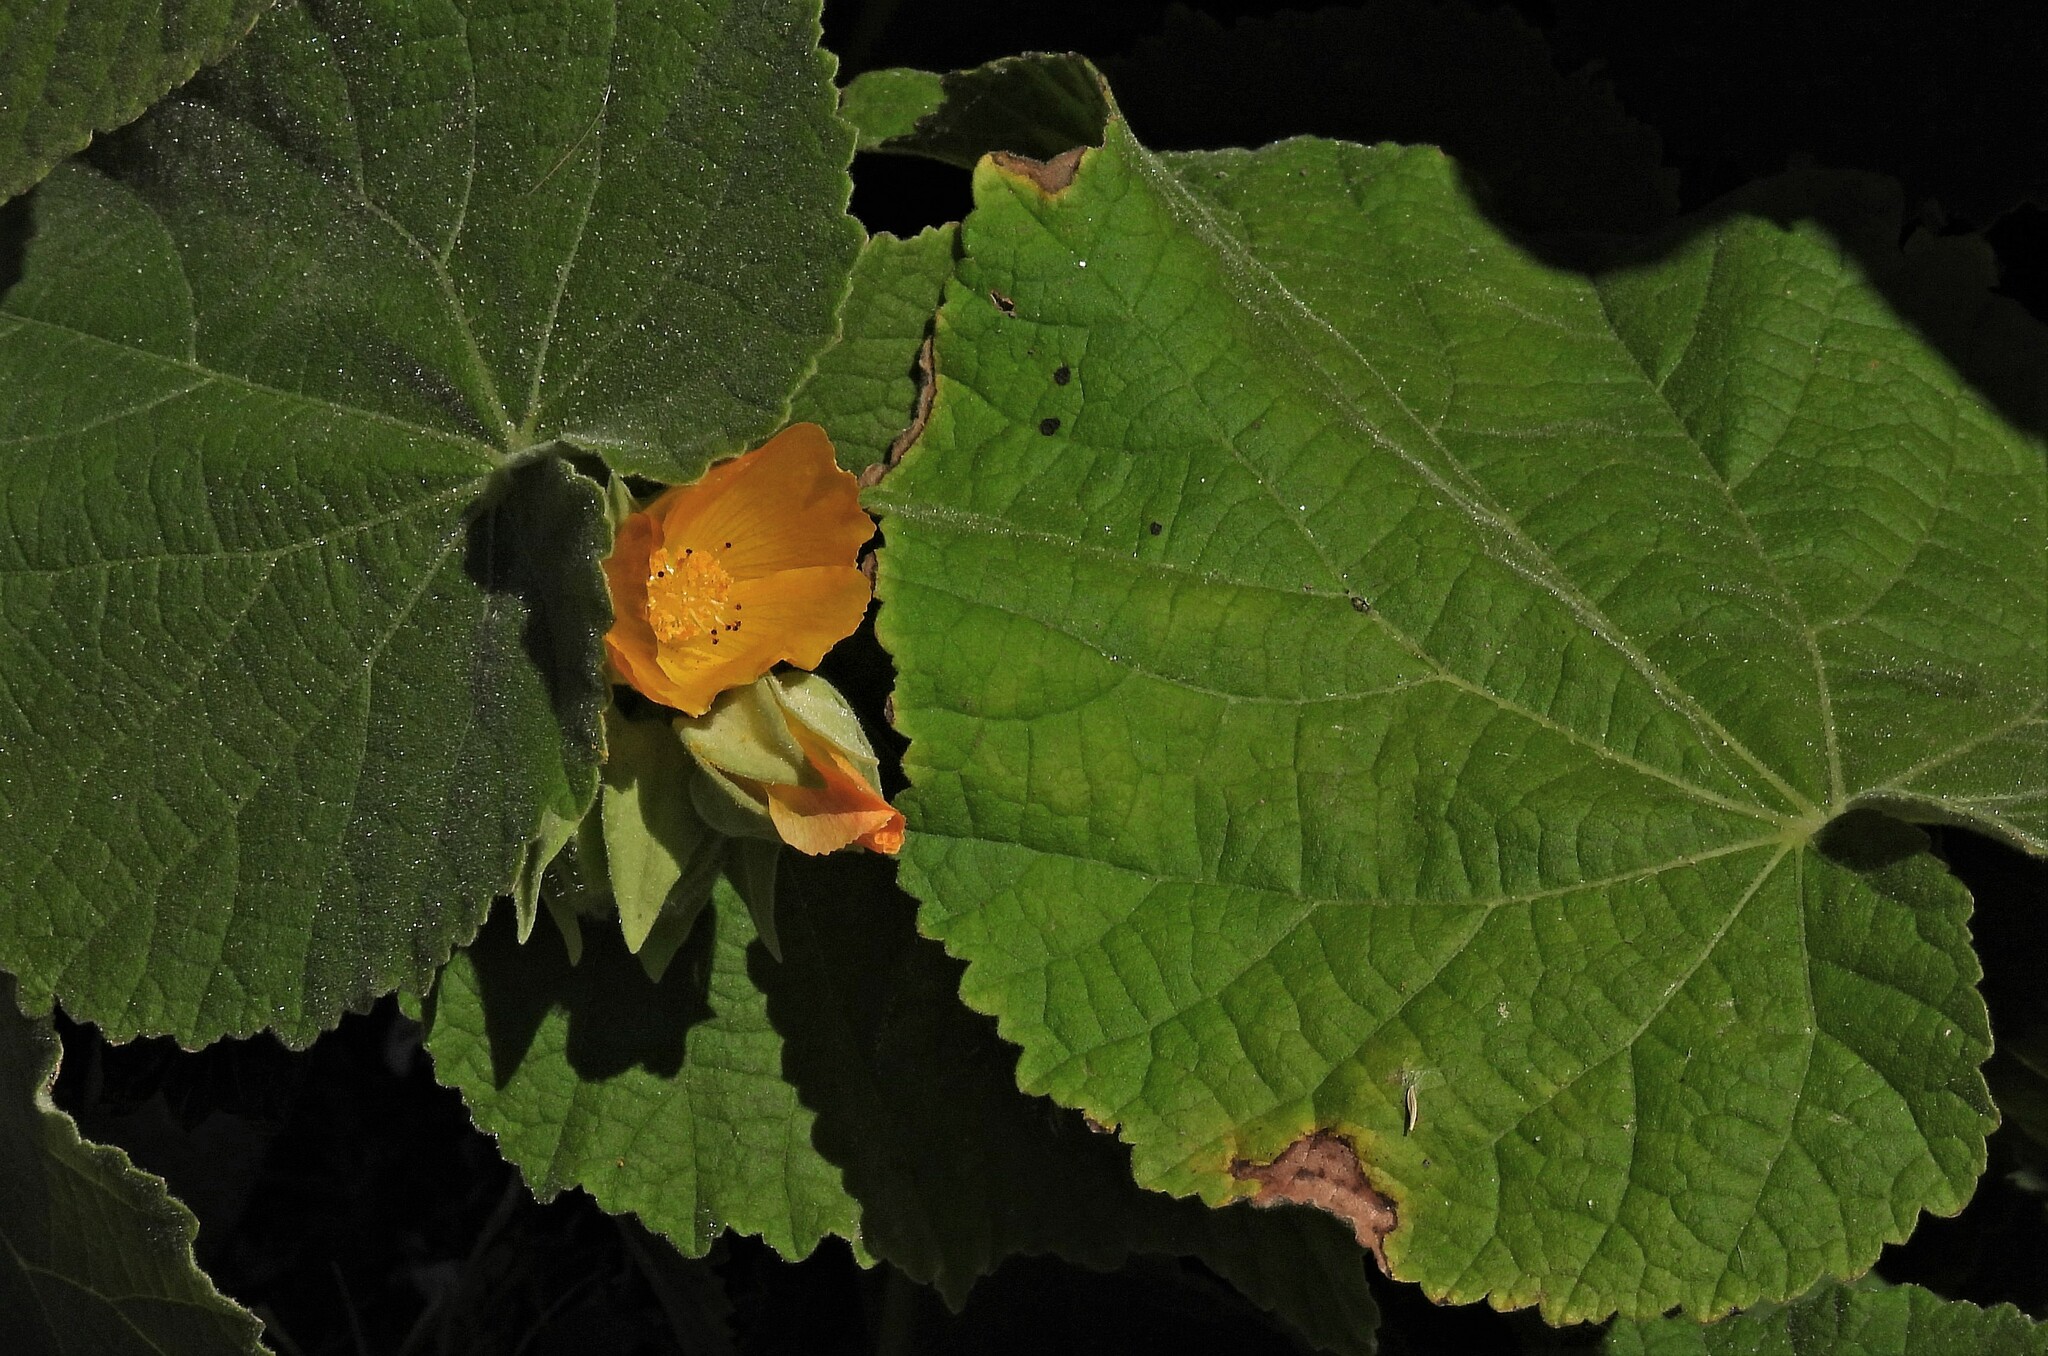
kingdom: Plantae
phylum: Tracheophyta
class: Magnoliopsida
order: Malvales
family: Malvaceae
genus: Abutilon
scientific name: Abutilon grandifolium
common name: Hairy abutilon
